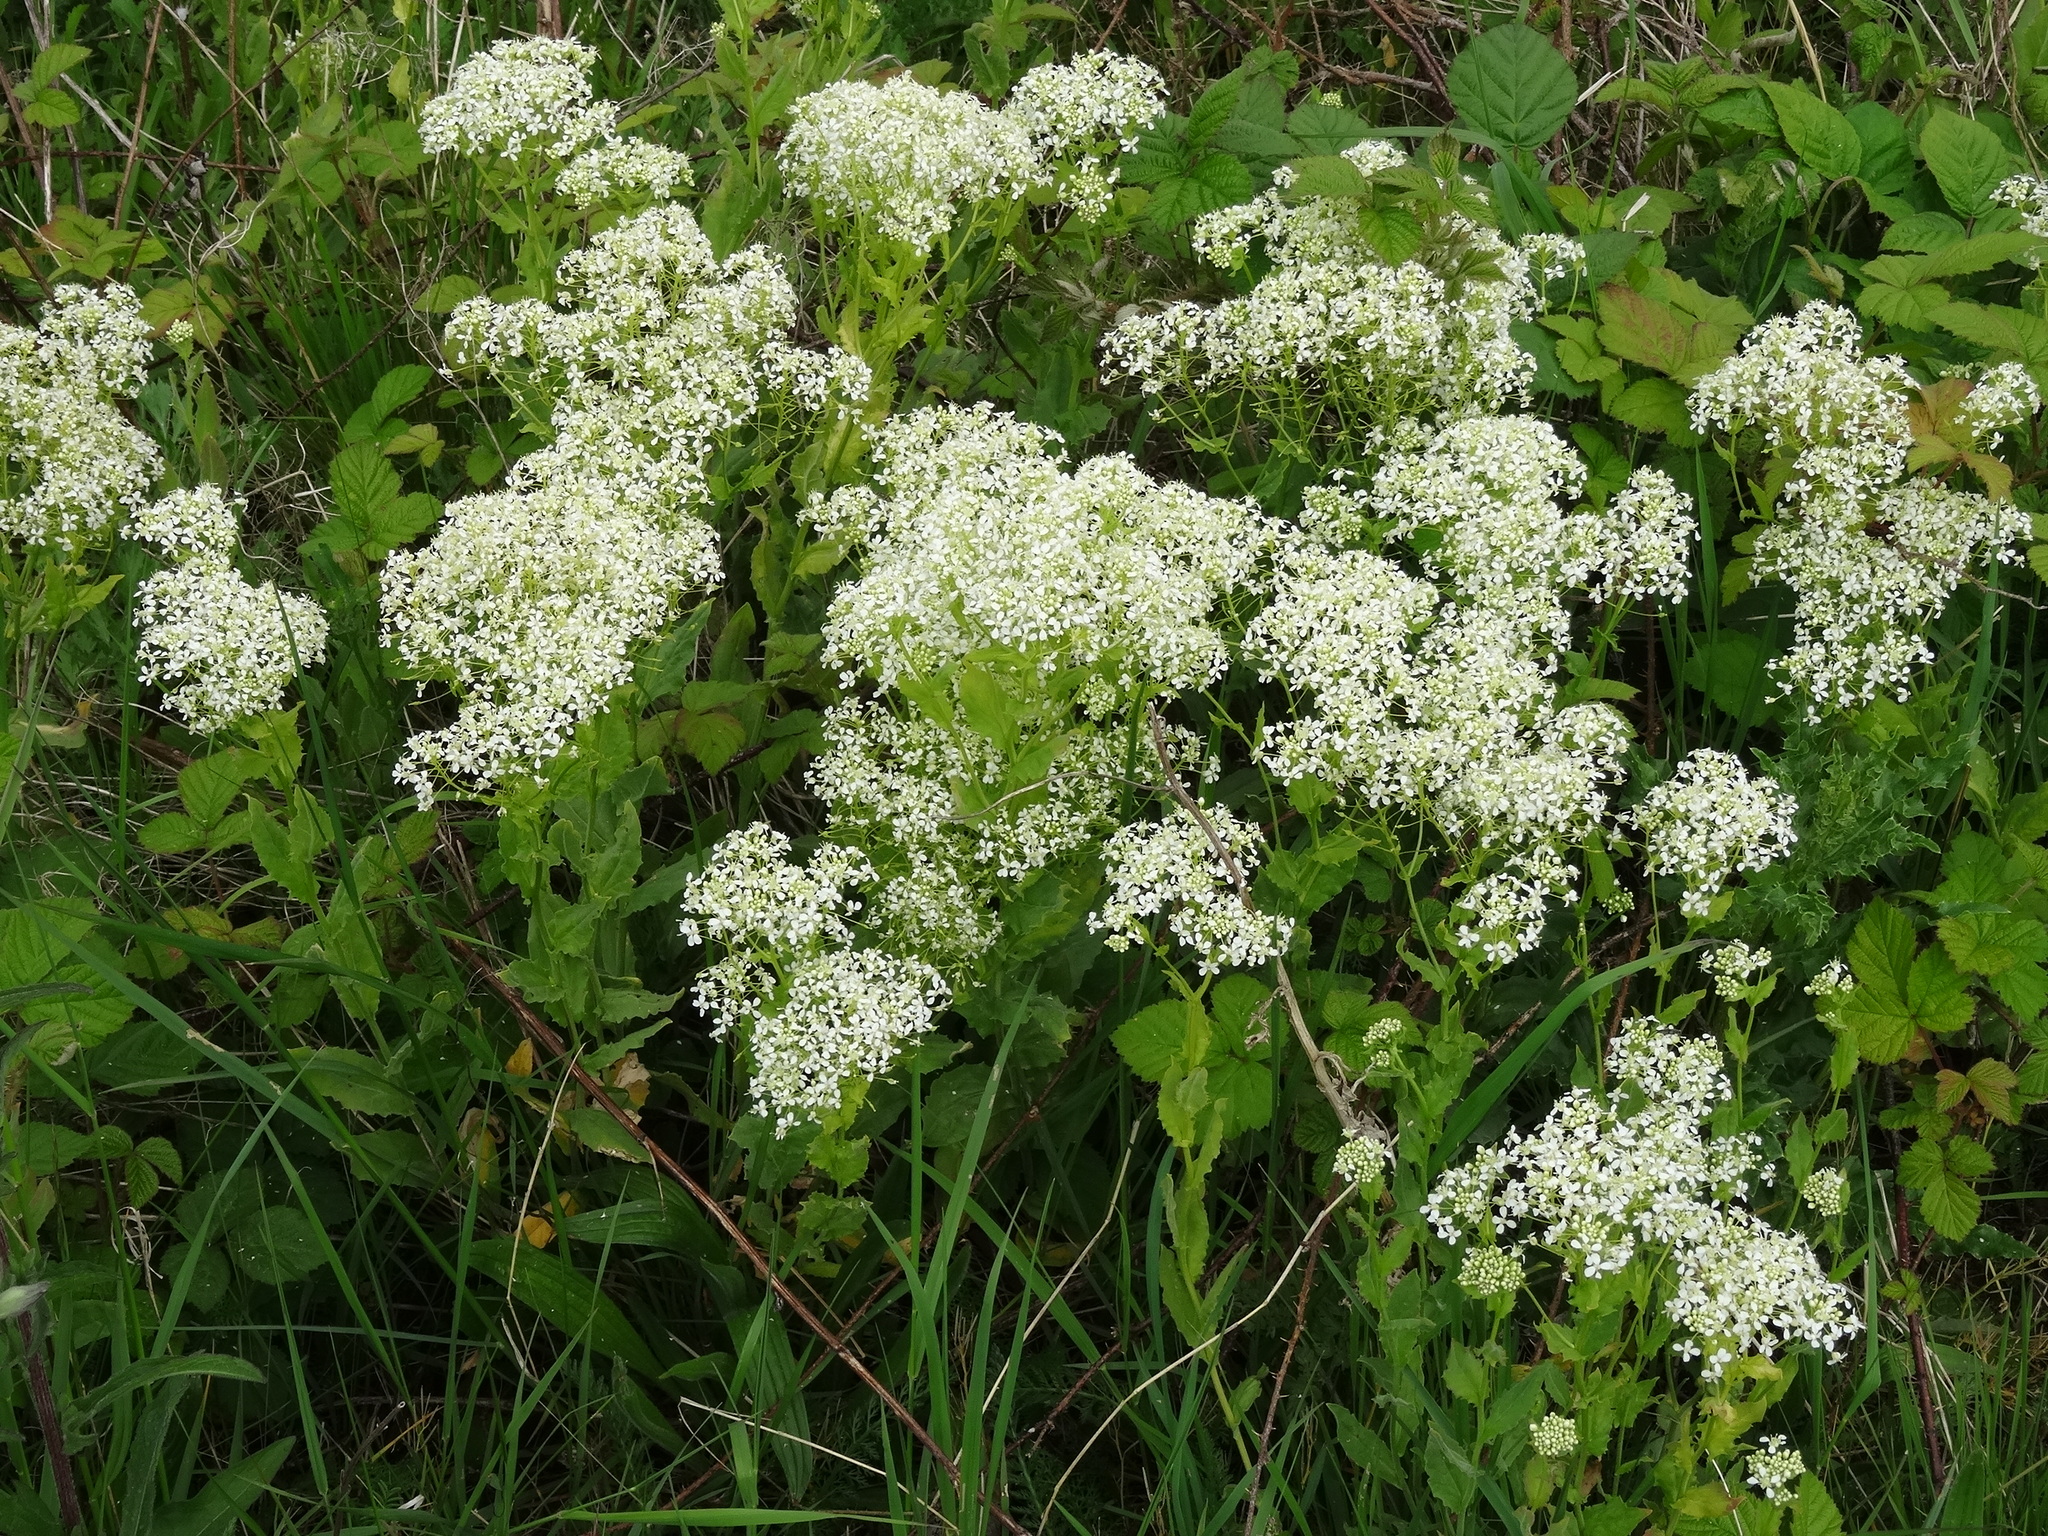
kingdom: Plantae
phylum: Tracheophyta
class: Magnoliopsida
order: Brassicales
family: Brassicaceae
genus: Lepidium
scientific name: Lepidium draba
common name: Hoary cress
